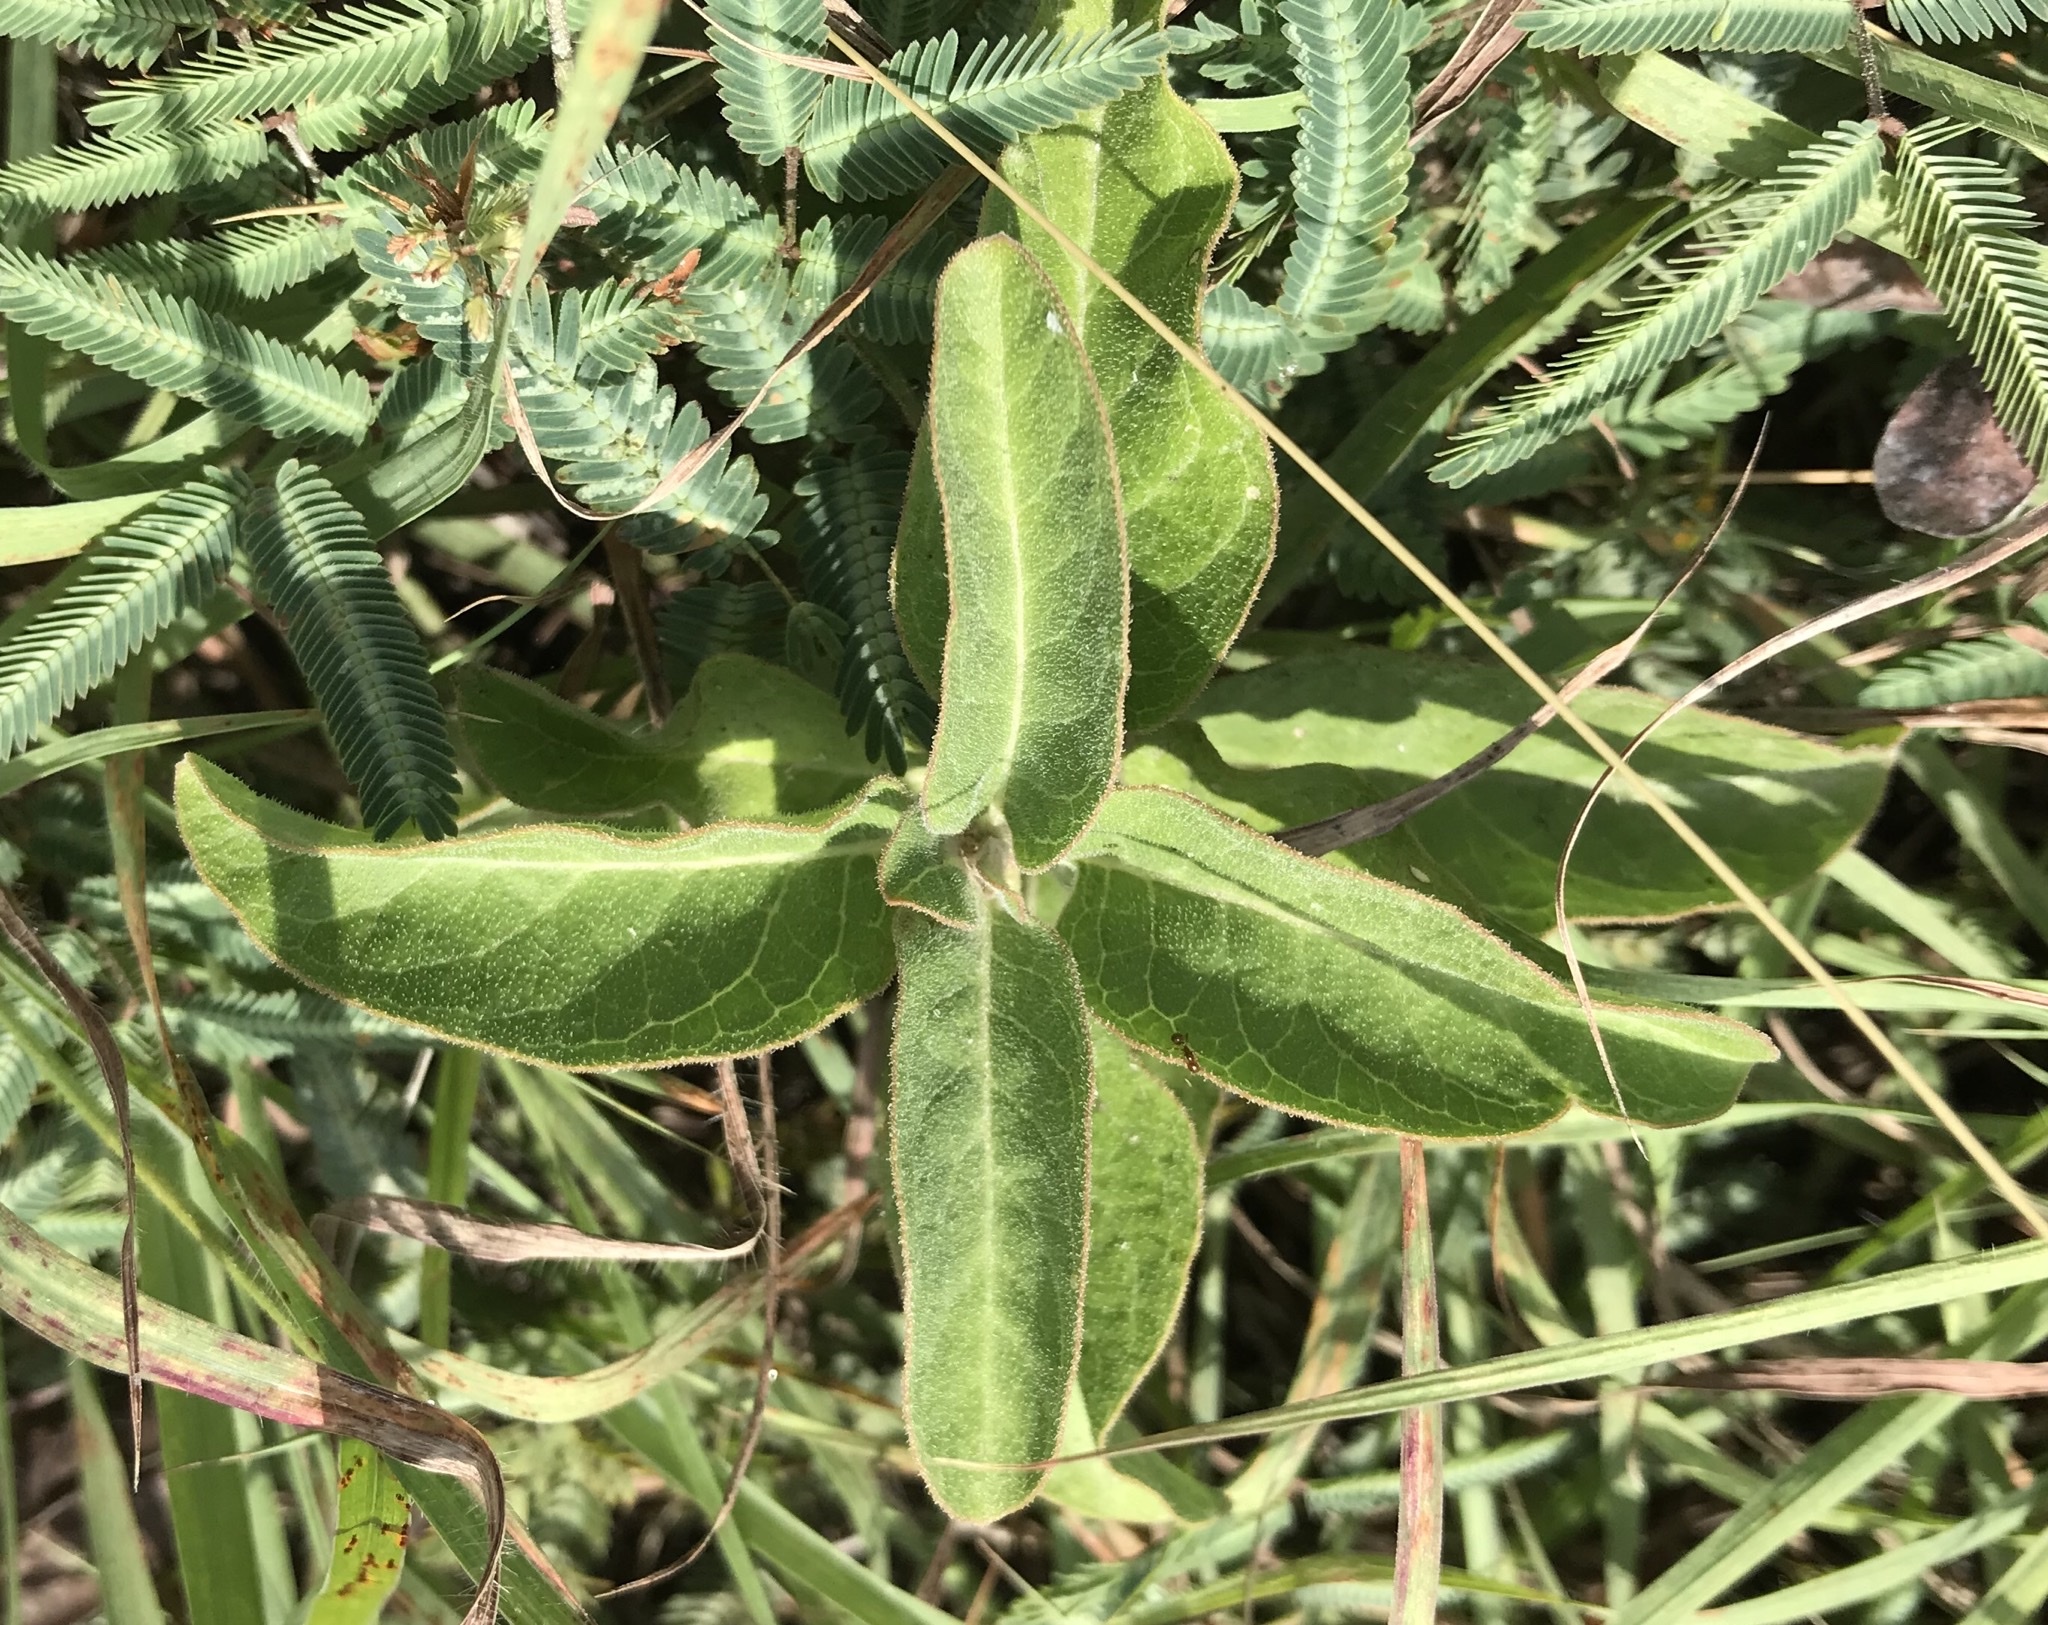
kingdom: Plantae
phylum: Tracheophyta
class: Magnoliopsida
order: Gentianales
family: Apocynaceae
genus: Asclepias
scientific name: Asclepias oenotheroides
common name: Zizotes milkweed
